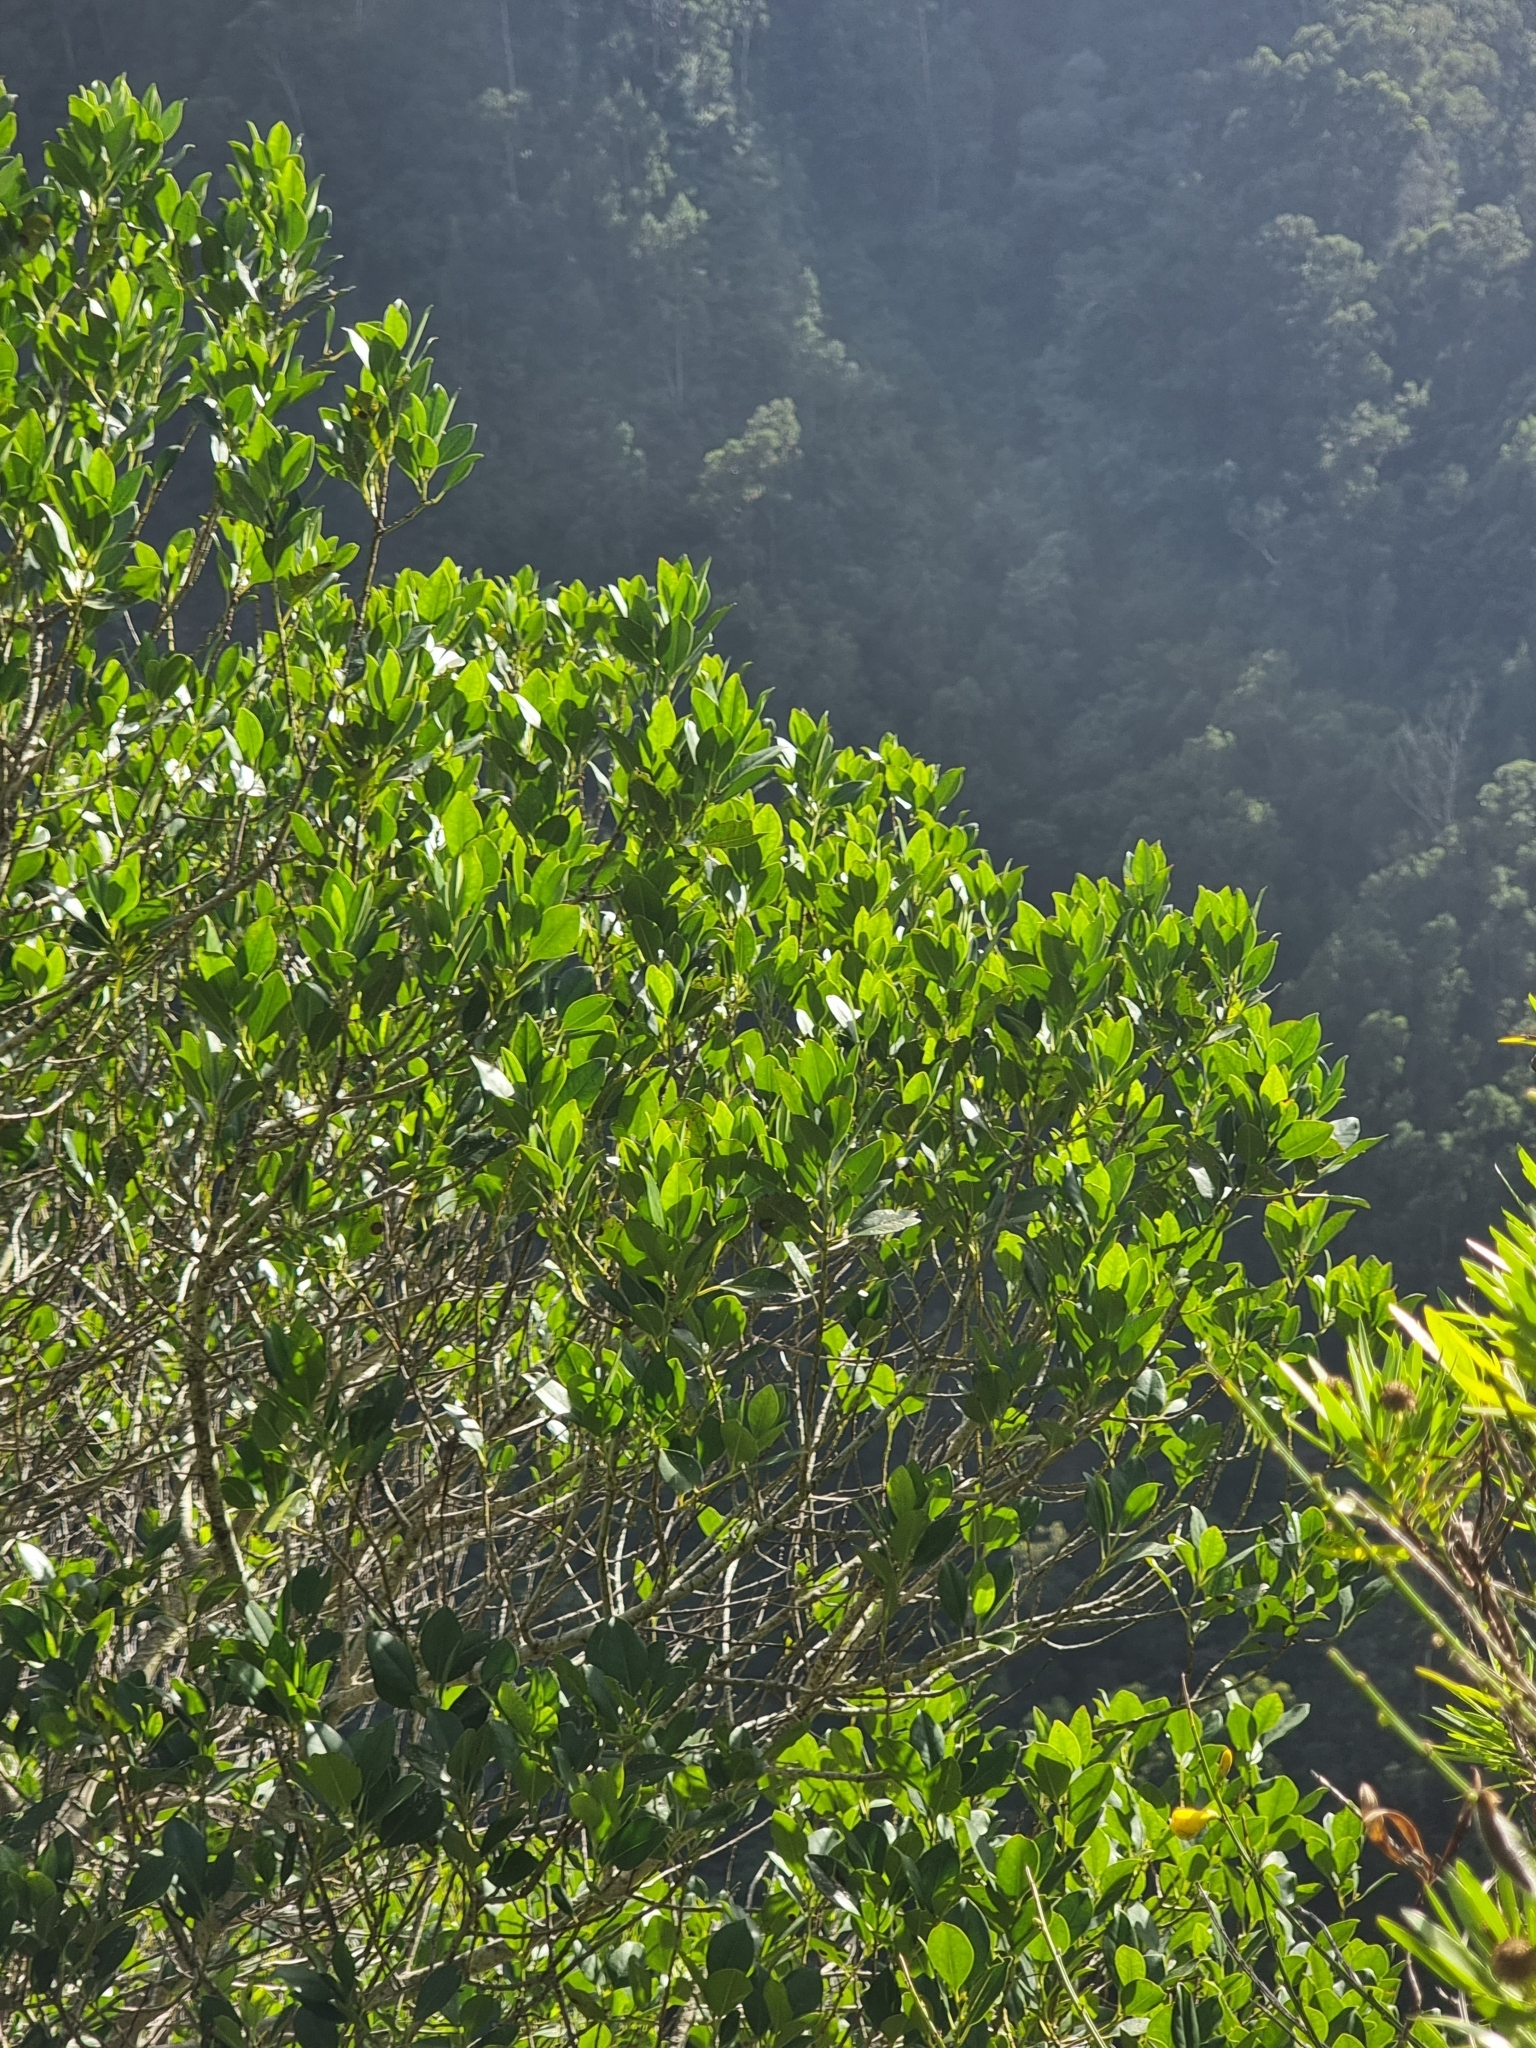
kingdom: Plantae
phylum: Tracheophyta
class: Magnoliopsida
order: Aquifoliales
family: Aquifoliaceae
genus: Ilex
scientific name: Ilex canariensis
